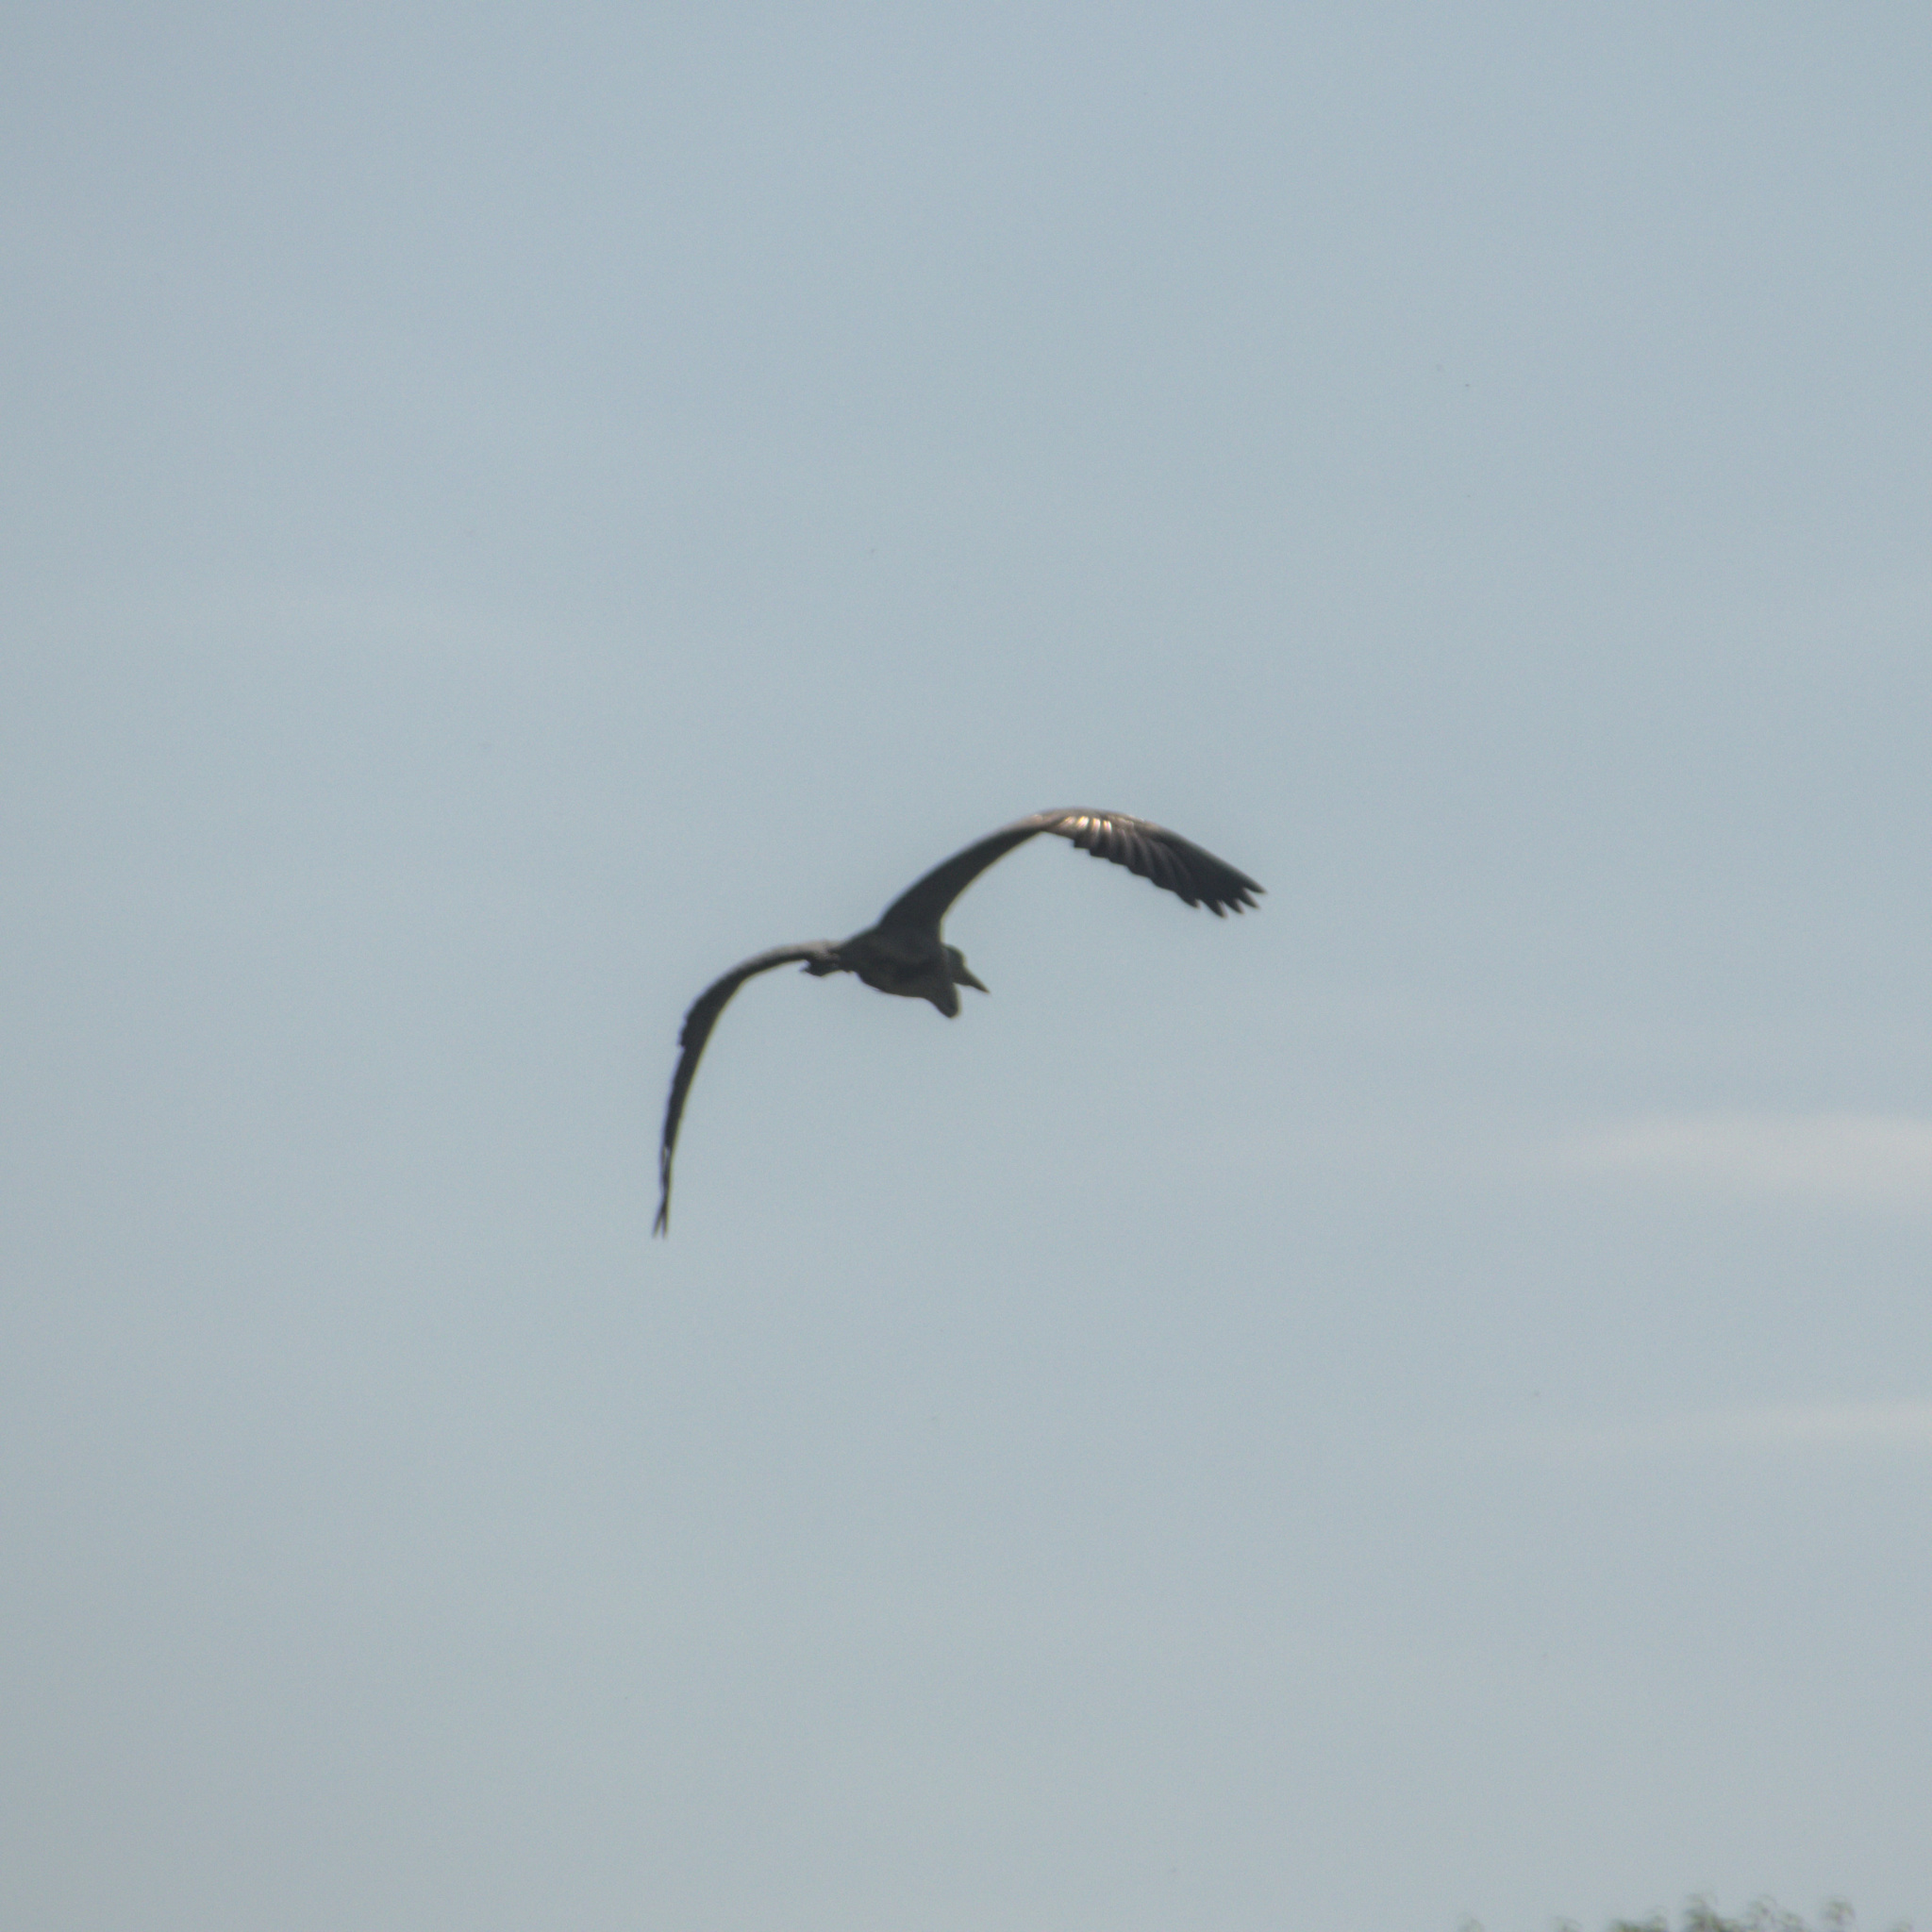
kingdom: Animalia
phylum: Chordata
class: Aves
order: Pelecaniformes
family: Ardeidae
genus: Ardea
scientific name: Ardea cinerea
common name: Grey heron
